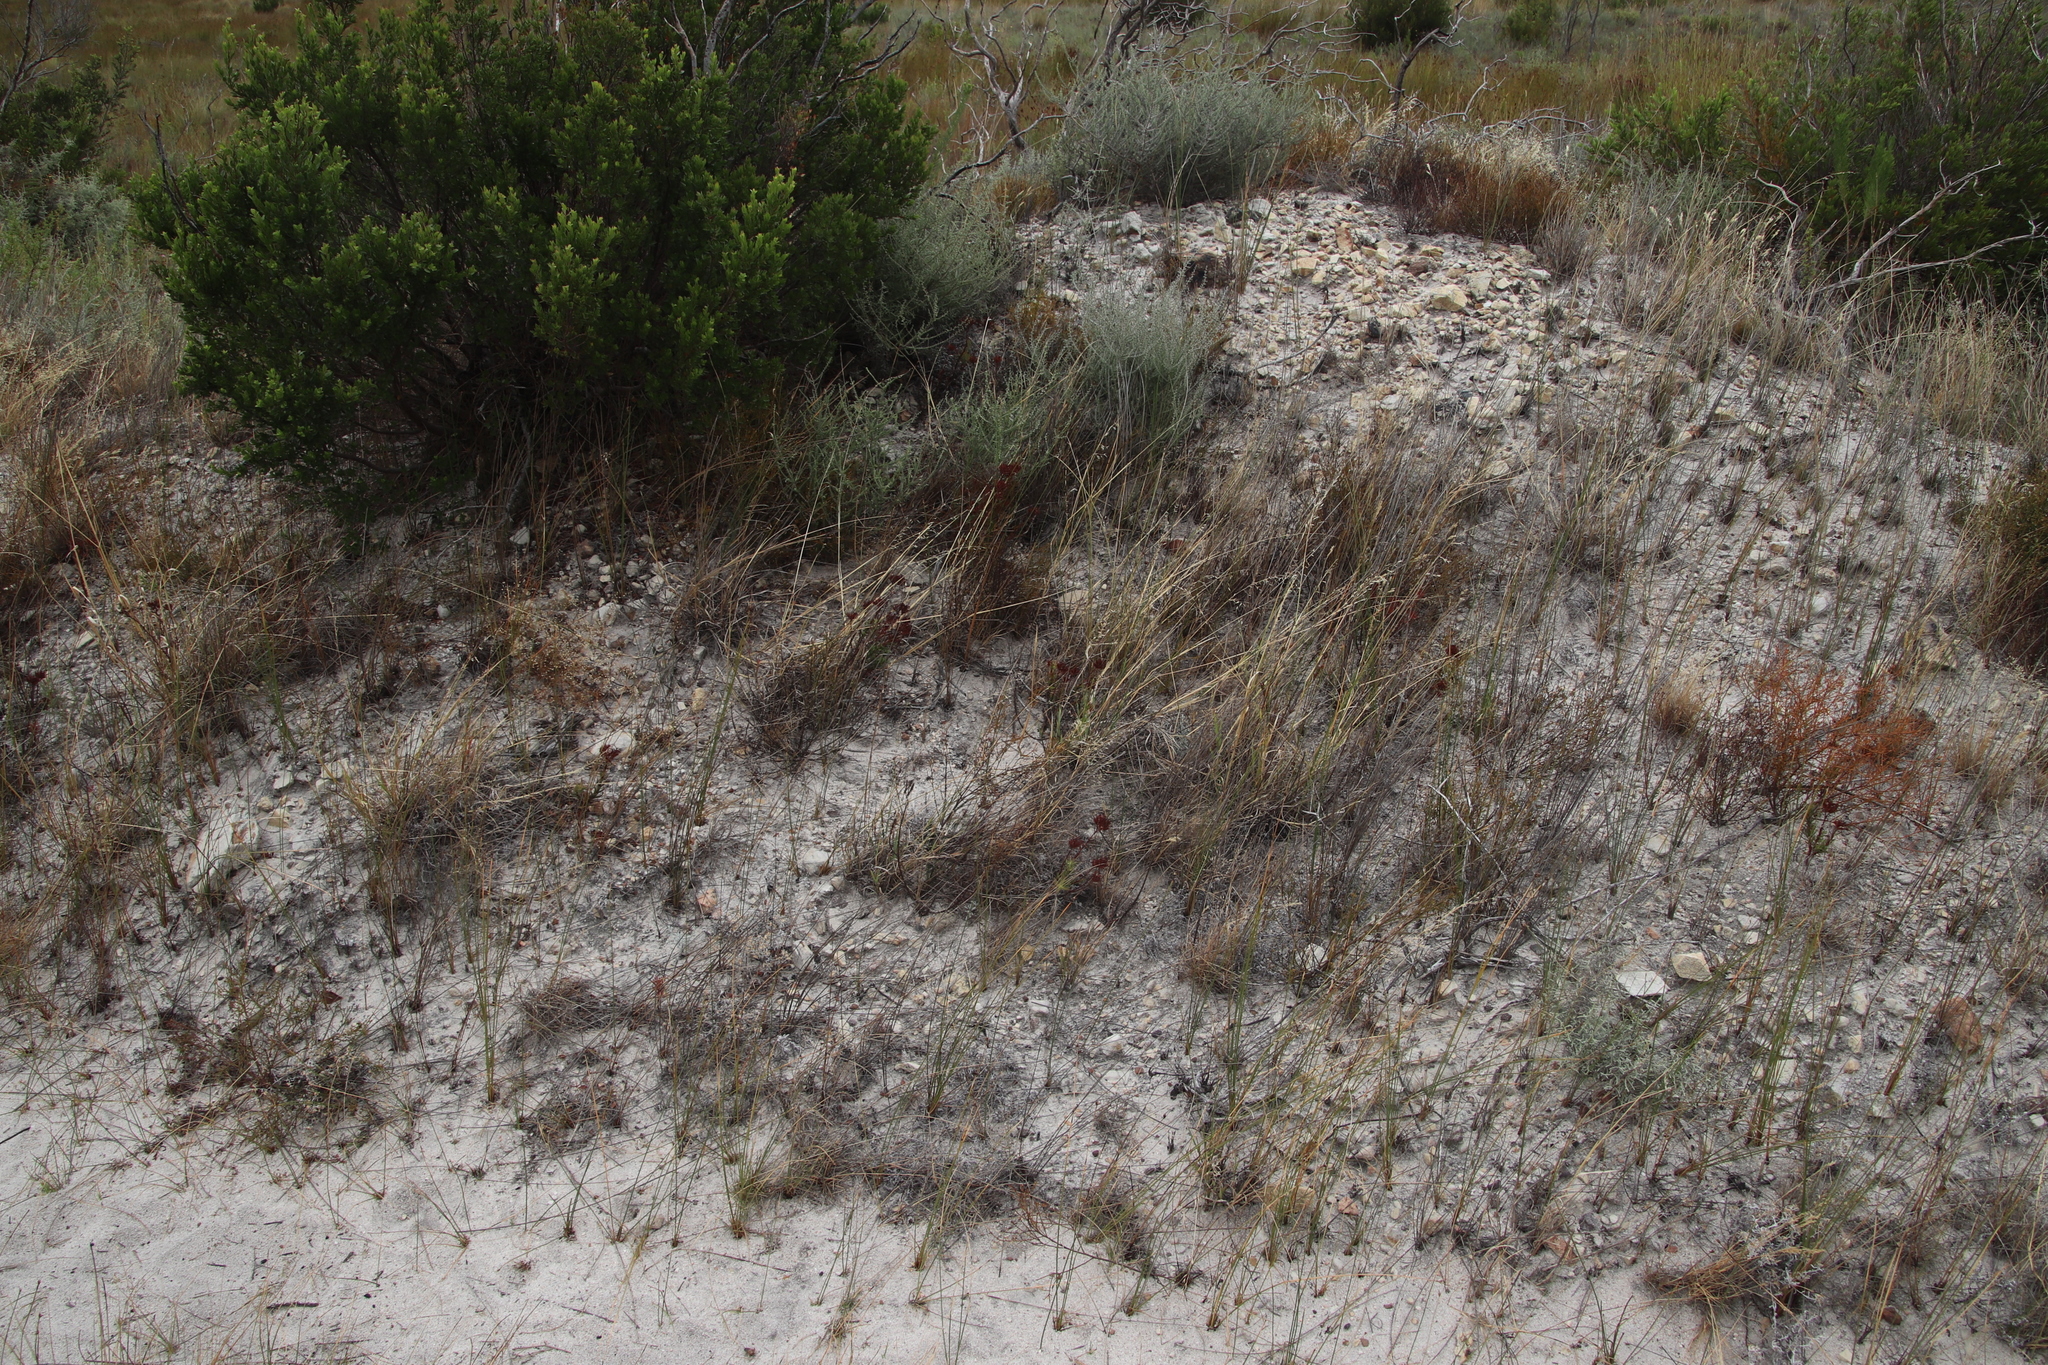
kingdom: Plantae
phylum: Tracheophyta
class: Magnoliopsida
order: Saxifragales
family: Crassulaceae
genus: Crassula
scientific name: Crassula fascicularis
